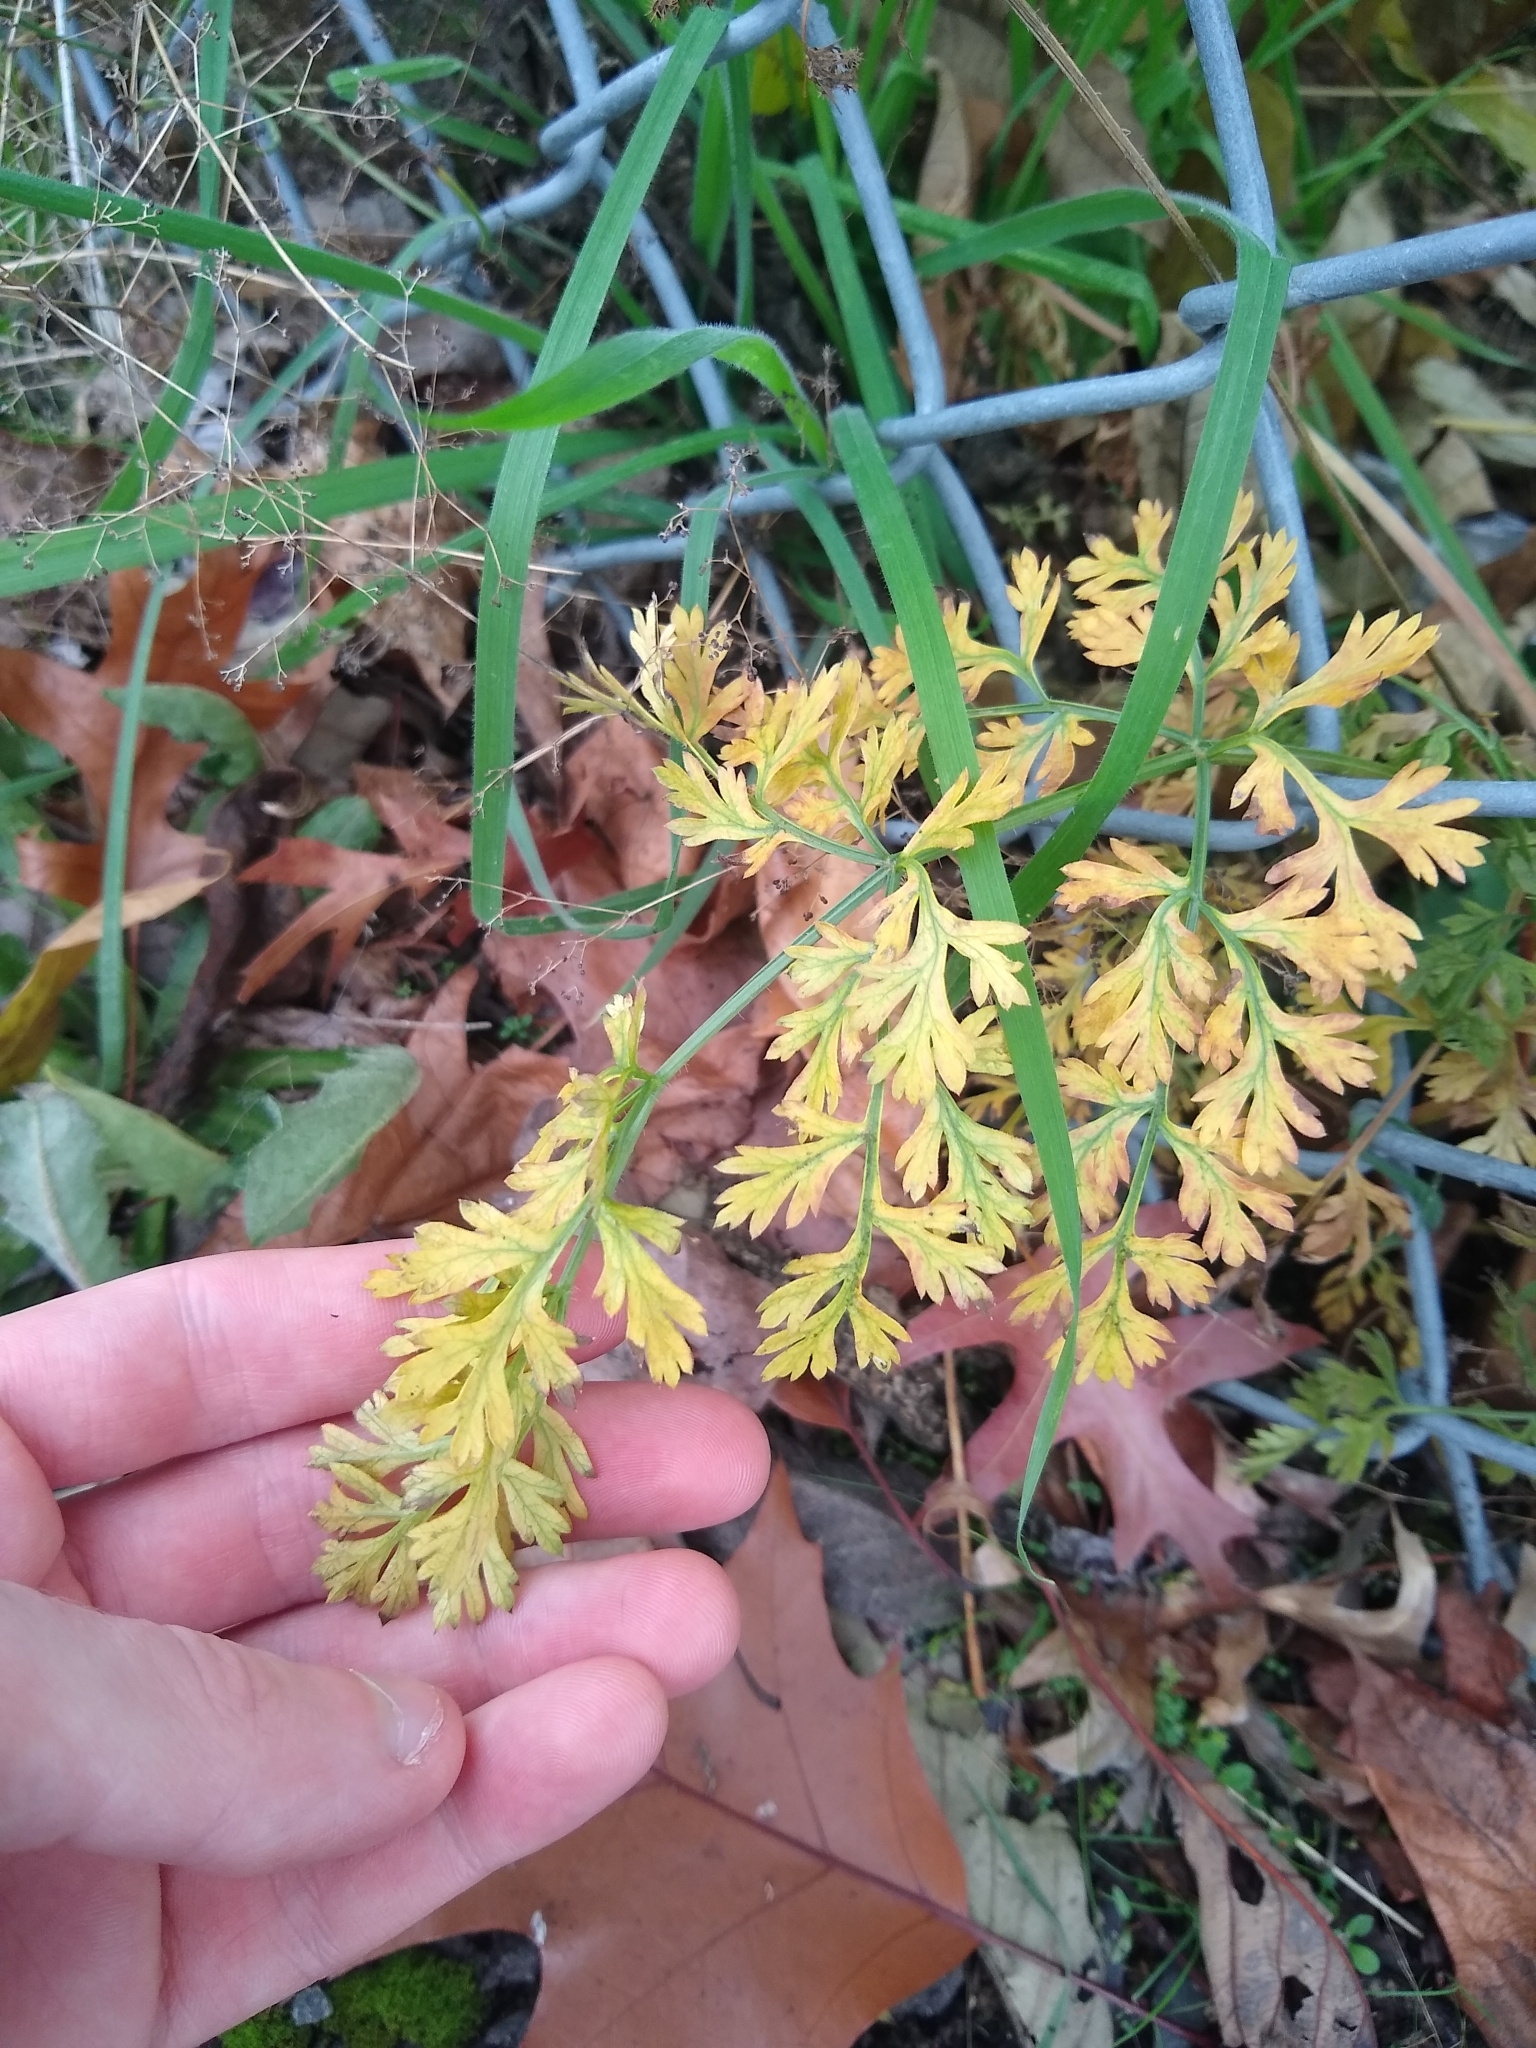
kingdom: Plantae
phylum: Tracheophyta
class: Magnoliopsida
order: Apiales
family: Apiaceae
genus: Daucus
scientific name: Daucus carota
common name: Wild carrot
